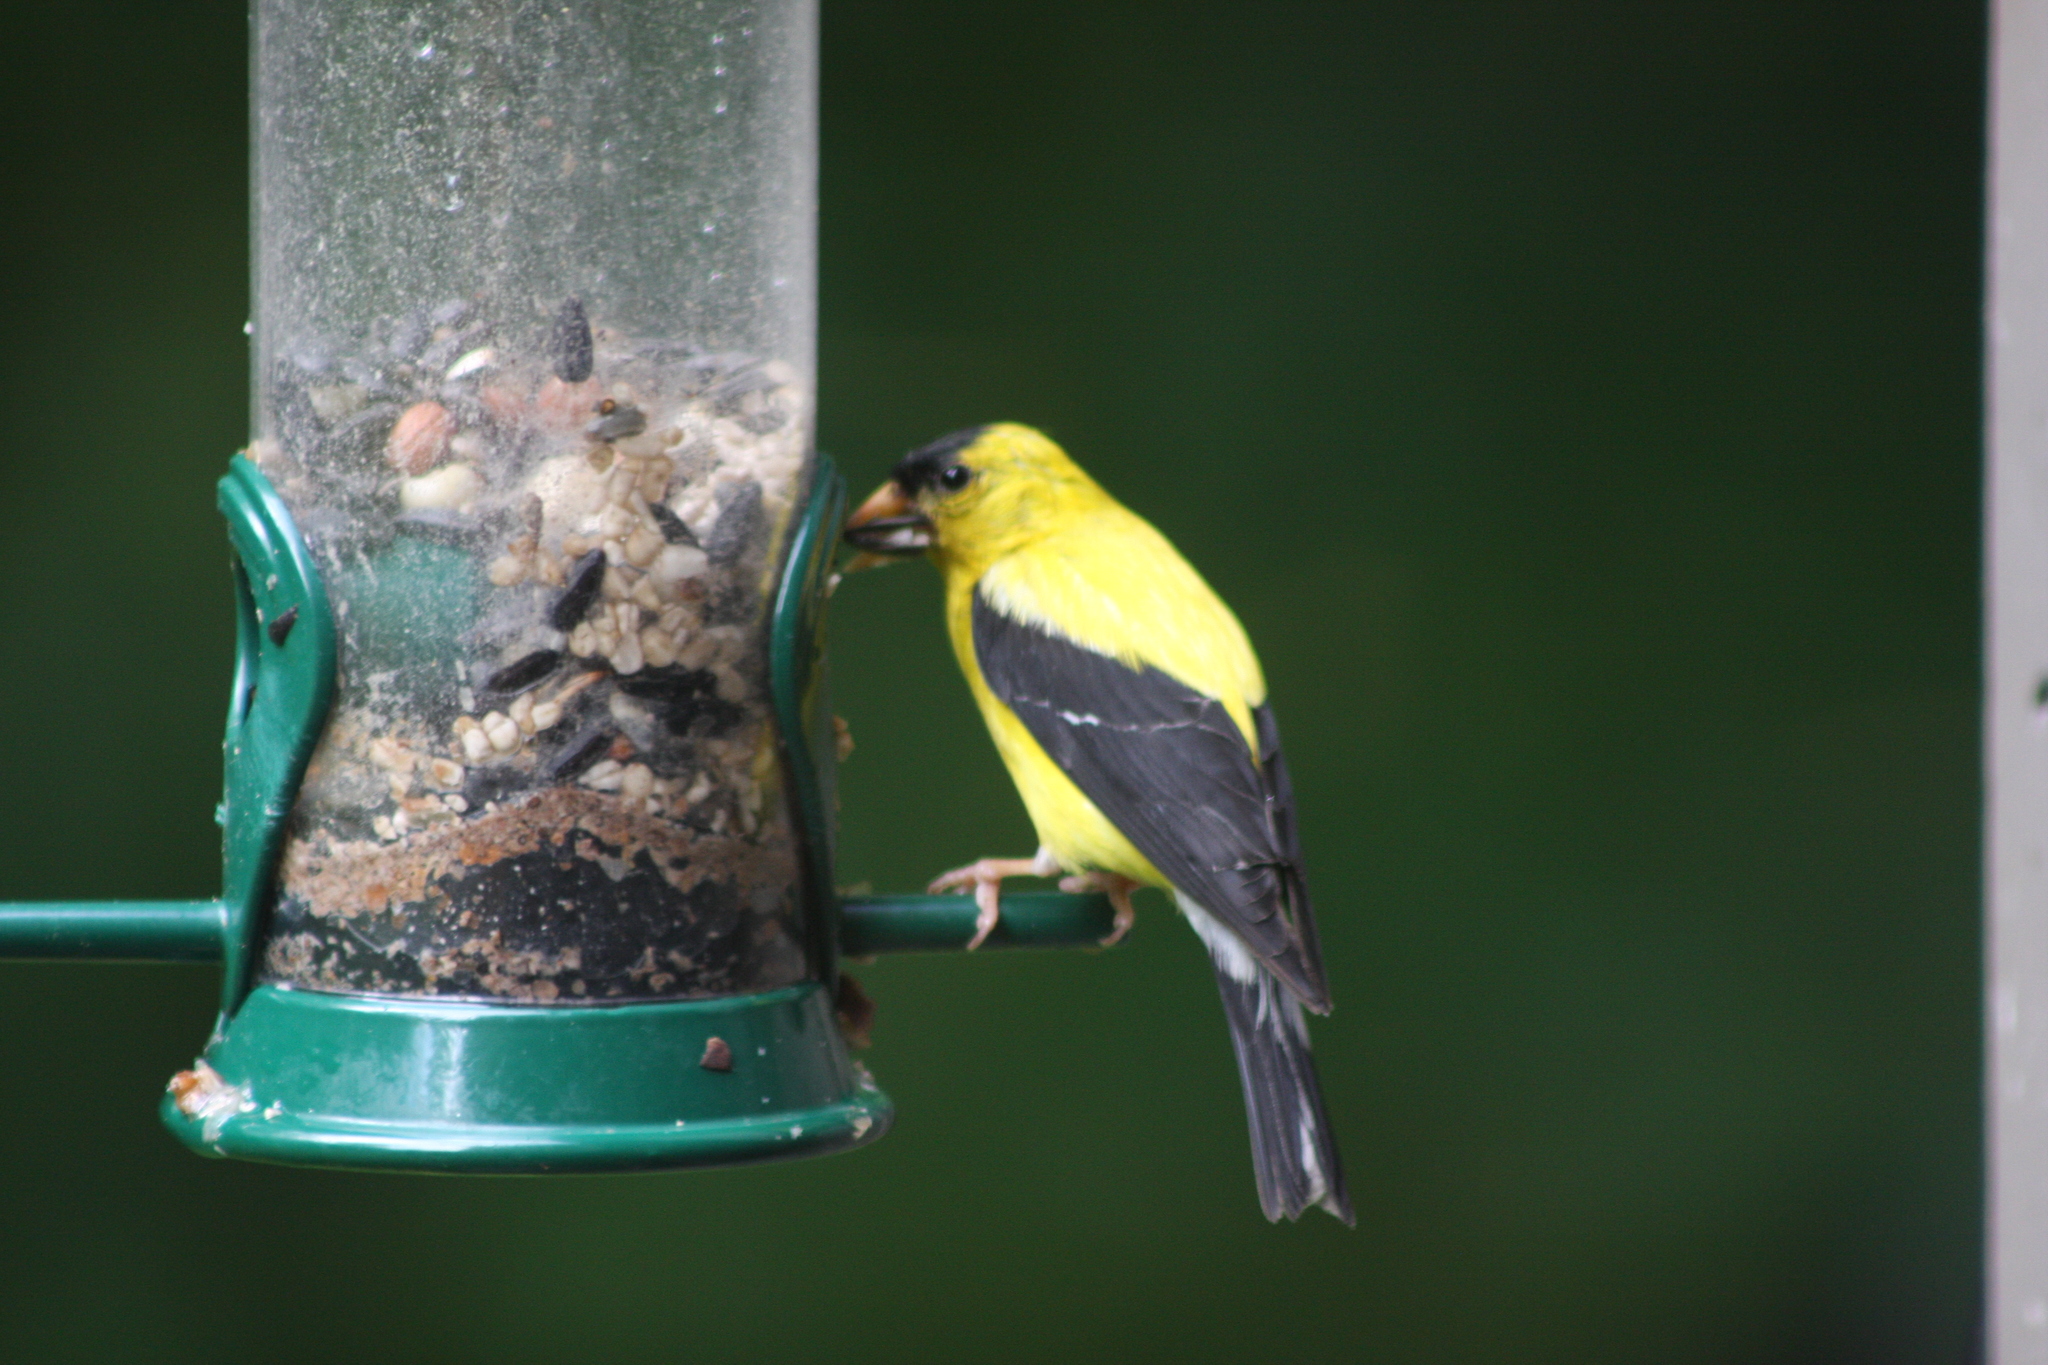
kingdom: Animalia
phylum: Chordata
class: Aves
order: Passeriformes
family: Fringillidae
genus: Spinus
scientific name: Spinus tristis
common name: American goldfinch
